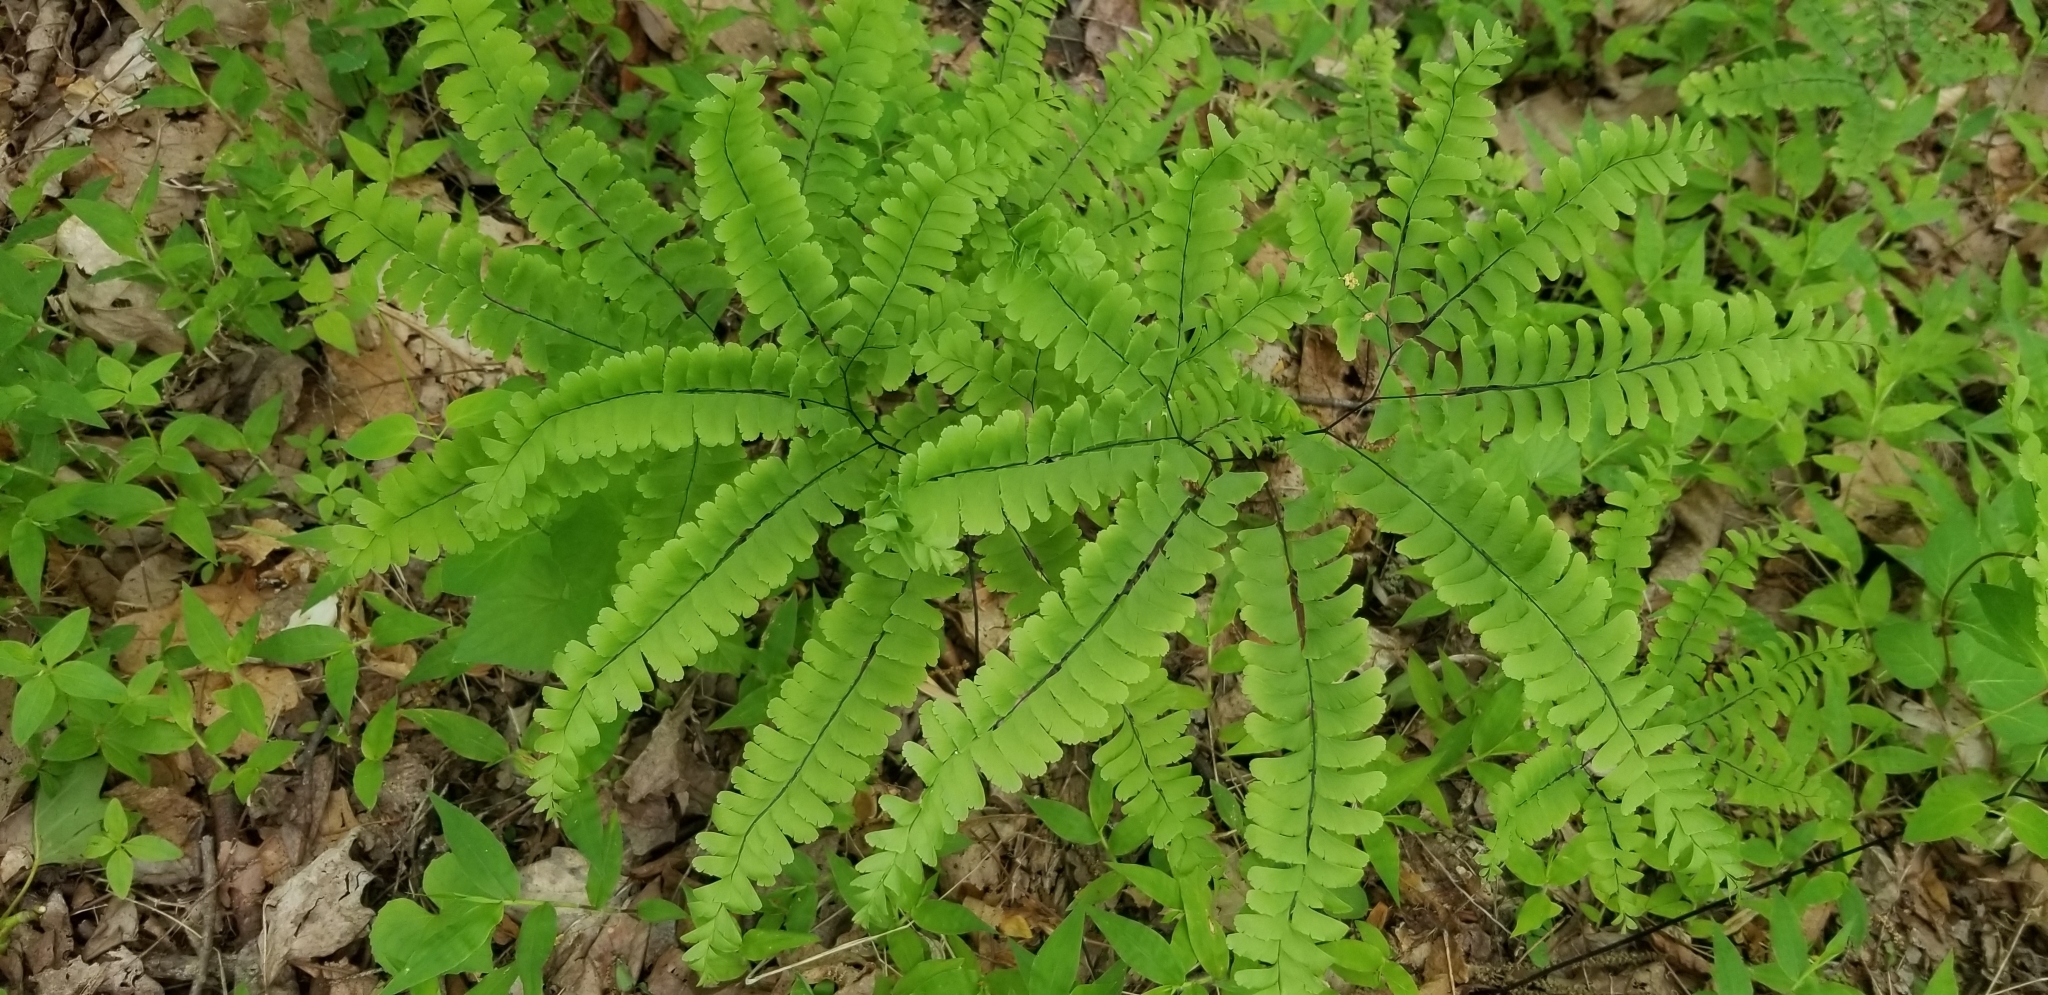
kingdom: Plantae
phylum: Tracheophyta
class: Polypodiopsida
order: Polypodiales
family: Pteridaceae
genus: Adiantum
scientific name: Adiantum pedatum
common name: Five-finger fern
